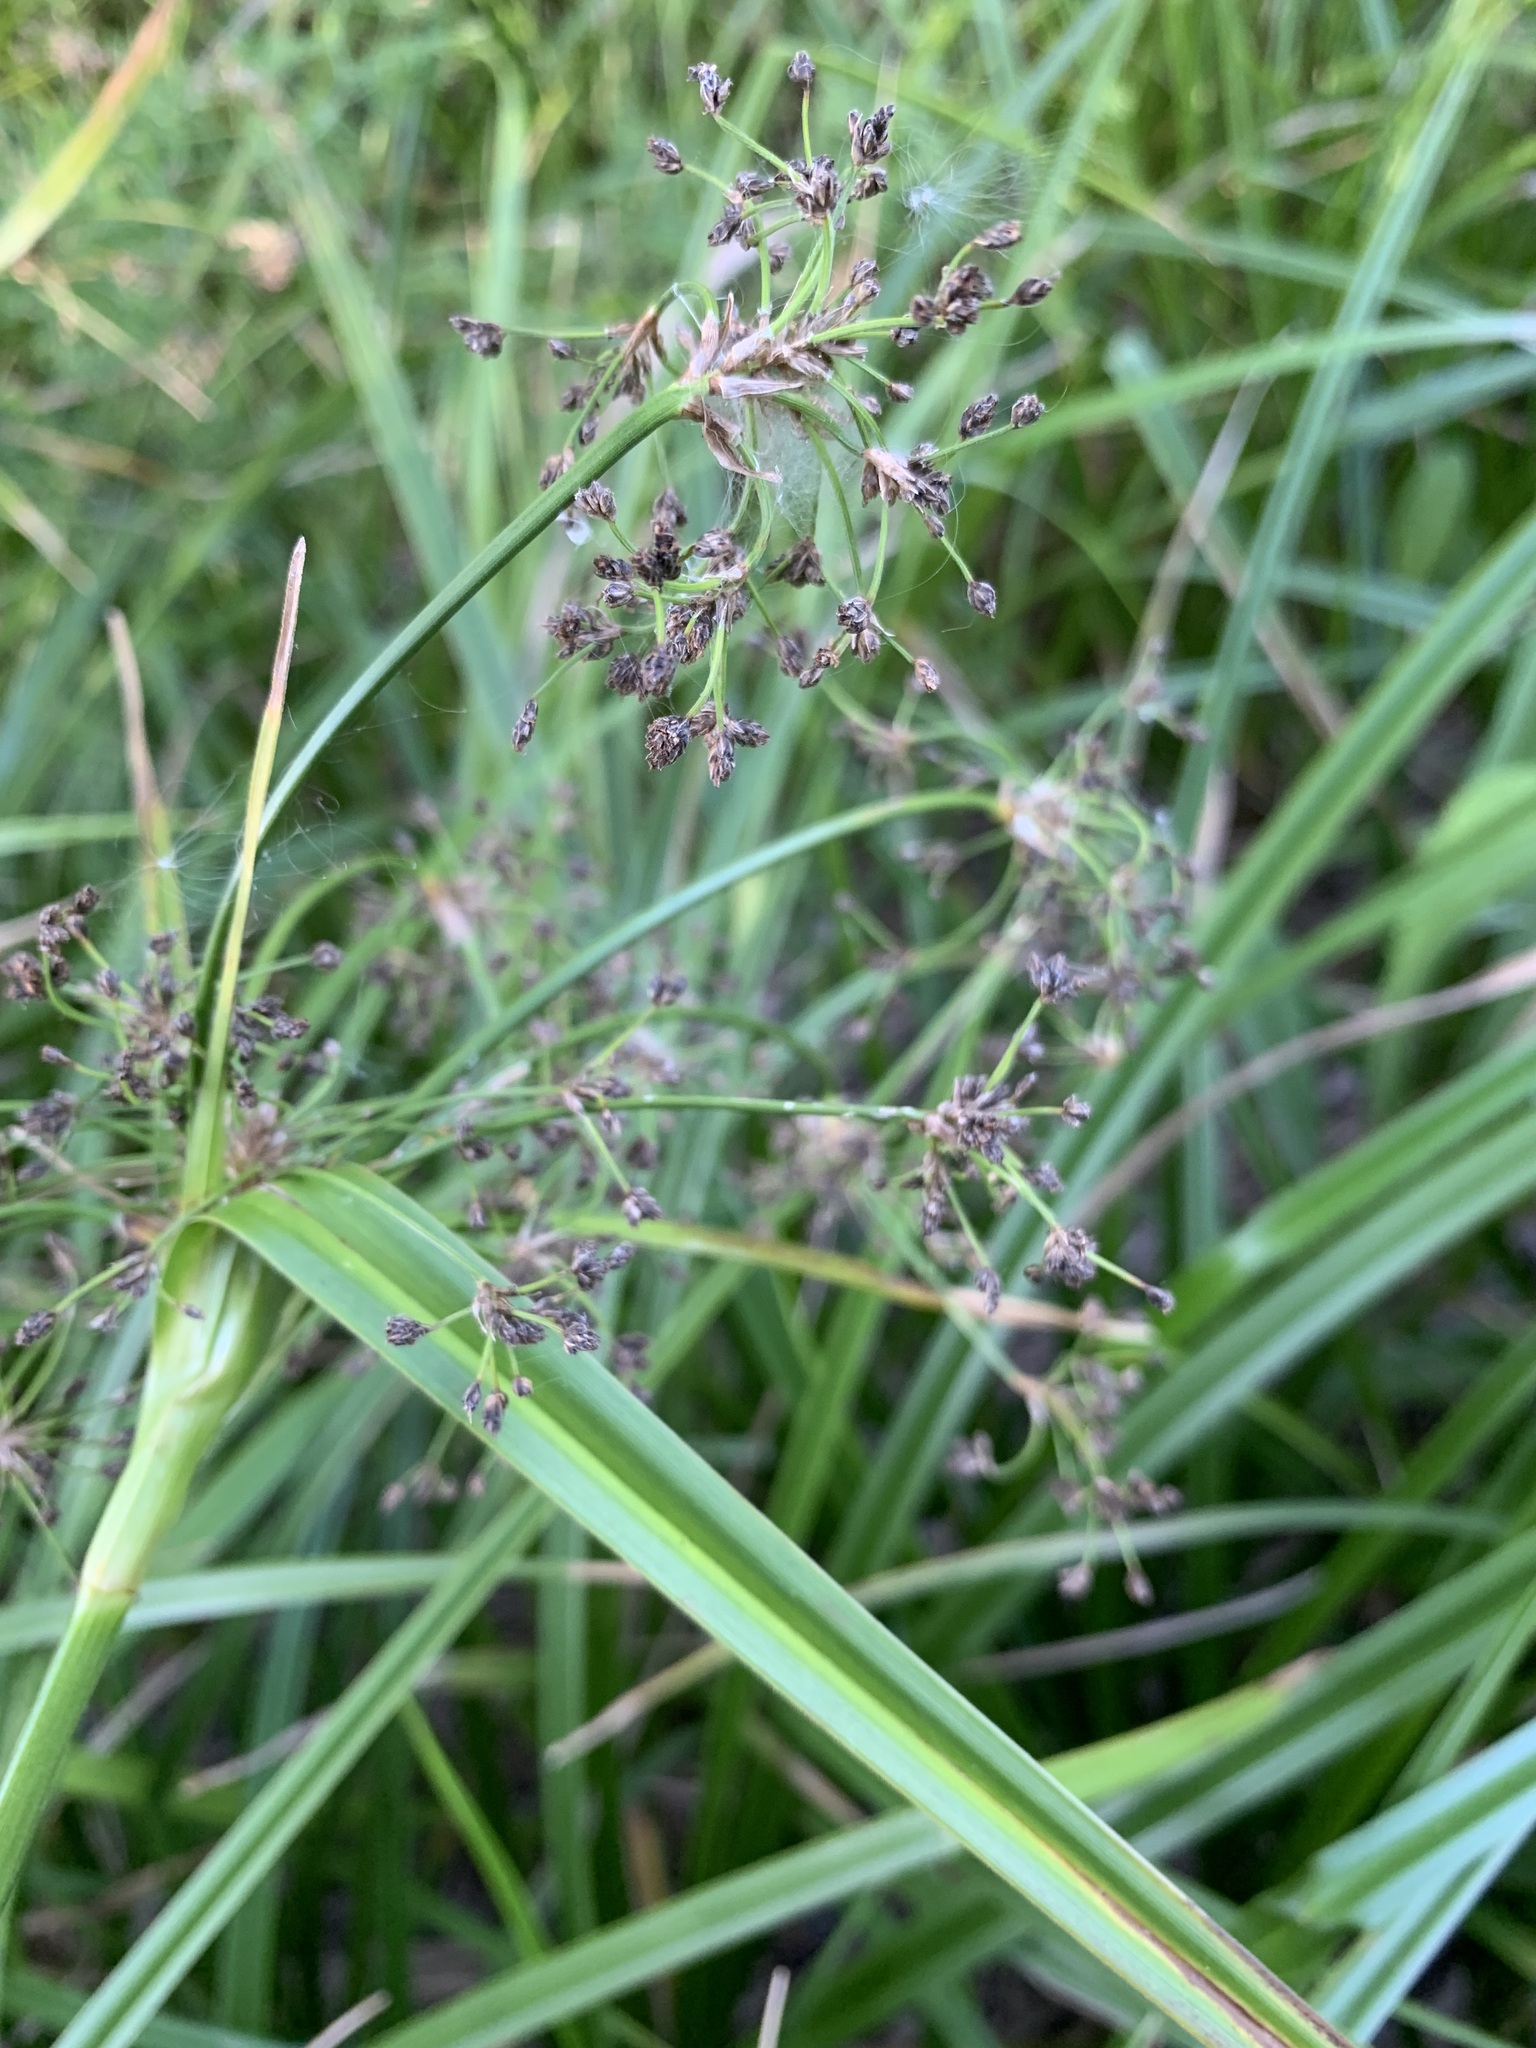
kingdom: Plantae
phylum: Tracheophyta
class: Liliopsida
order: Poales
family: Cyperaceae
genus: Scirpus
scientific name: Scirpus sylvaticus
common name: Wood club-rush
